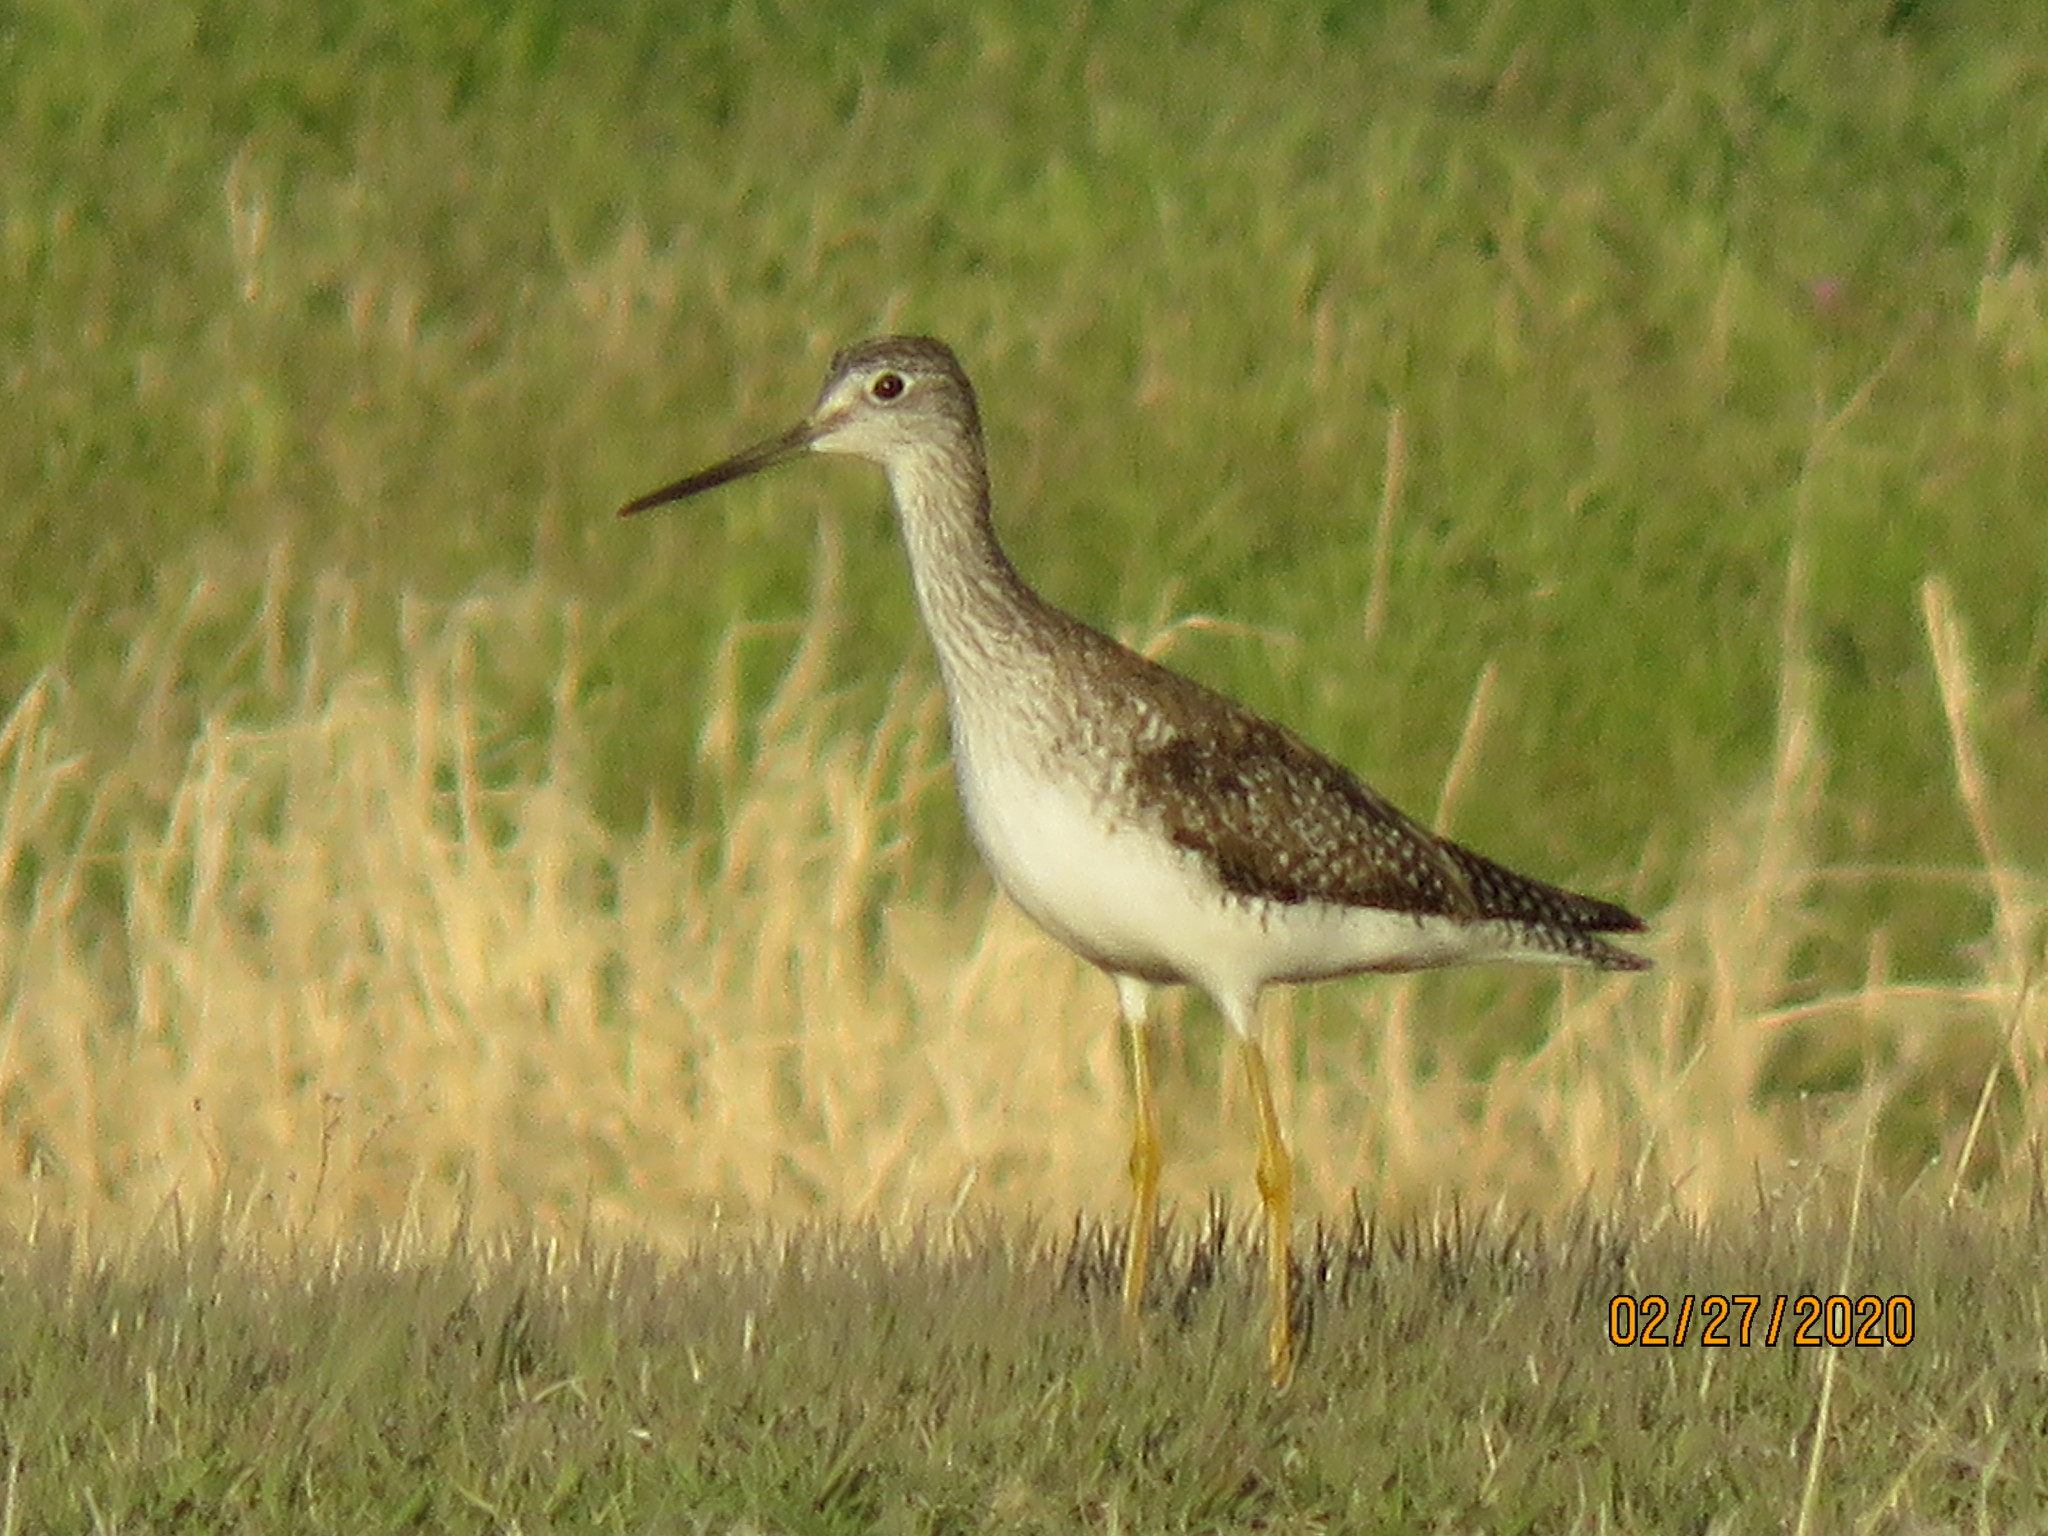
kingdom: Animalia
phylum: Chordata
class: Aves
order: Charadriiformes
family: Scolopacidae
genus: Tringa
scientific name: Tringa melanoleuca
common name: Greater yellowlegs
